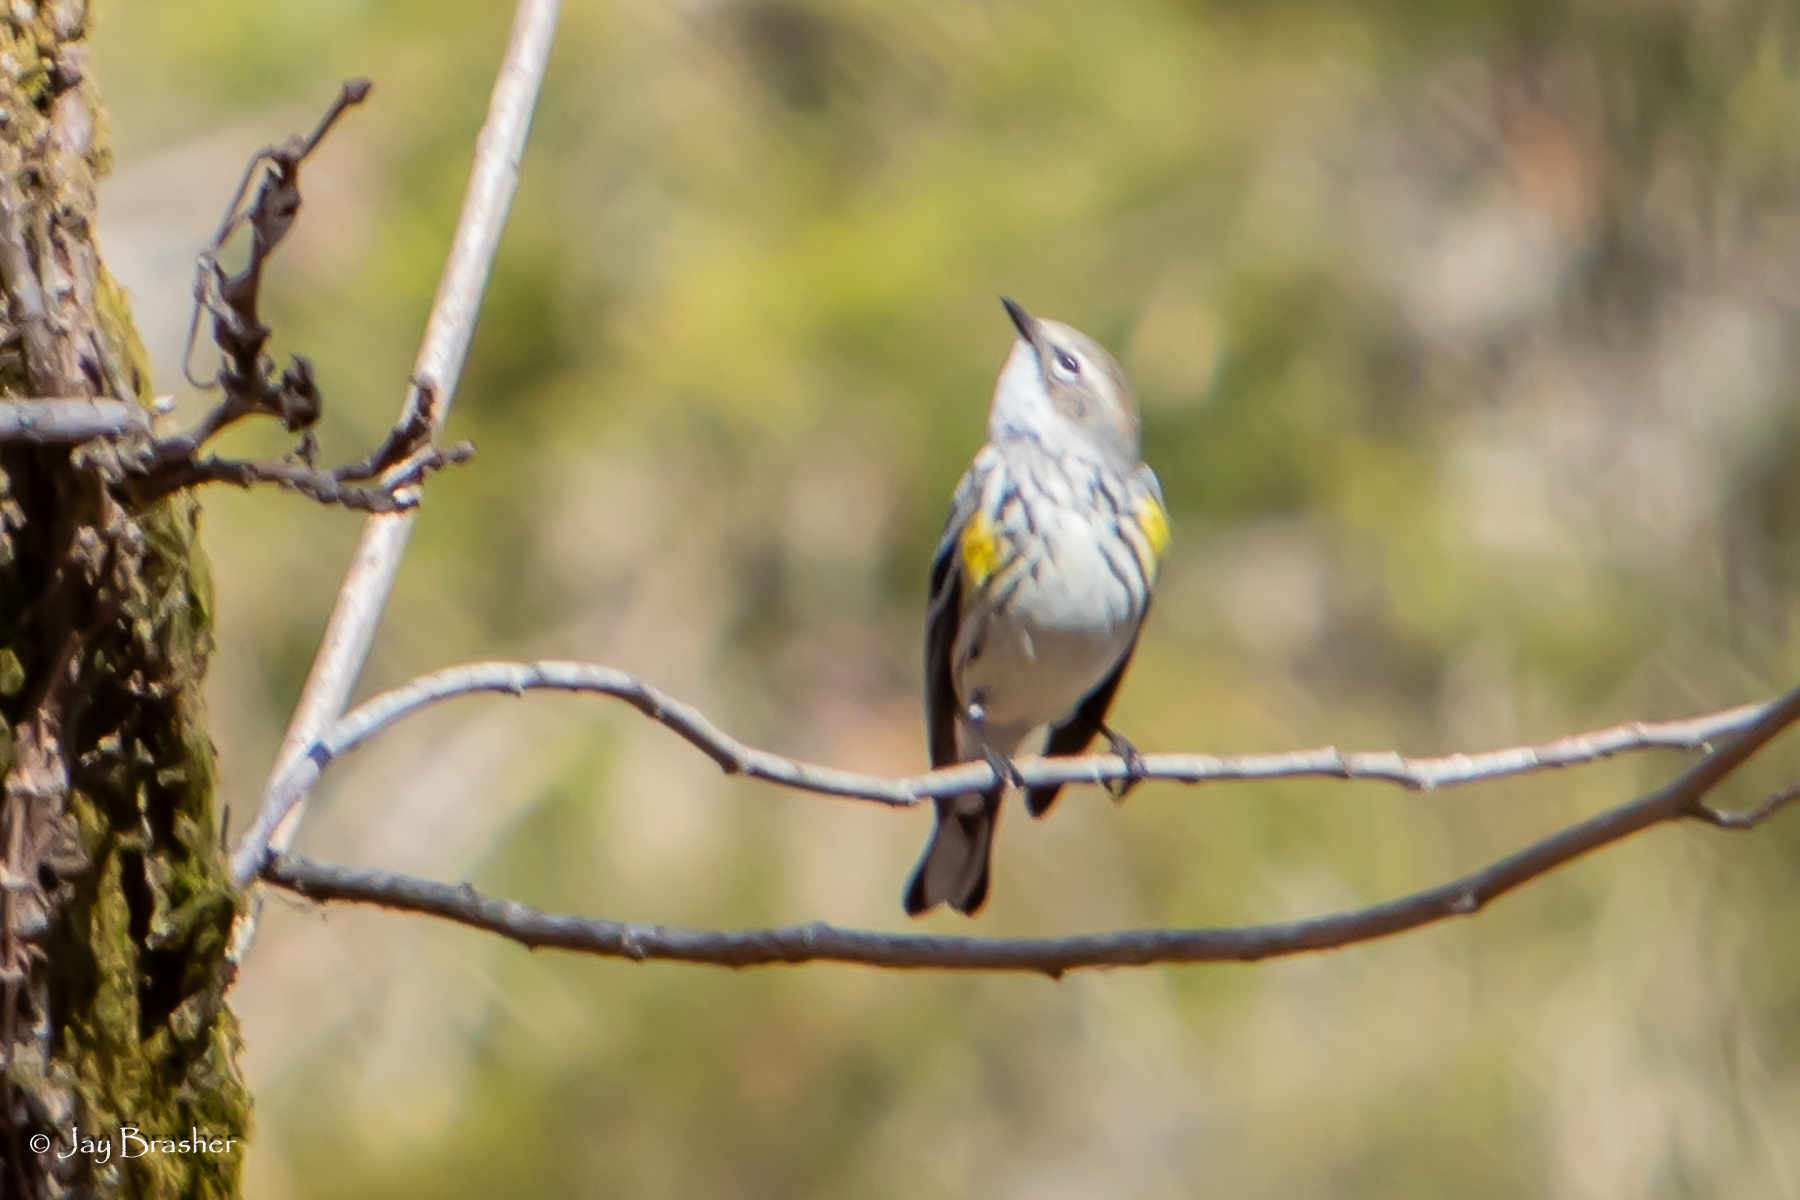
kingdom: Animalia
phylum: Chordata
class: Aves
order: Passeriformes
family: Parulidae
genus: Setophaga
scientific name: Setophaga coronata
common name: Myrtle warbler
